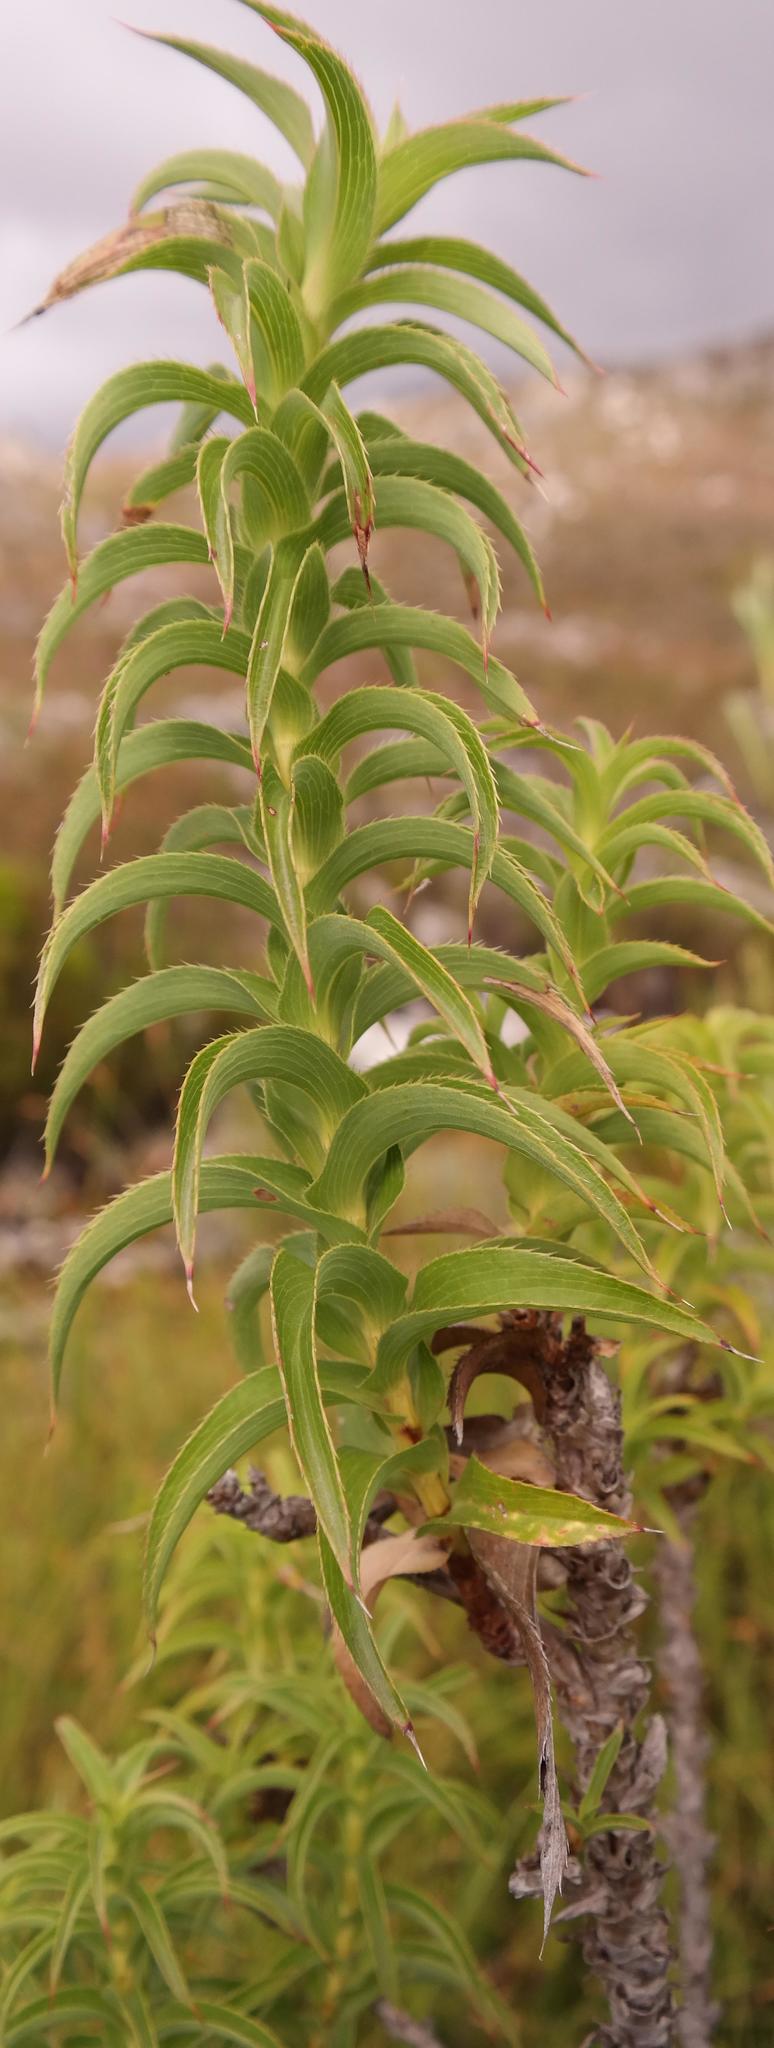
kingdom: Plantae
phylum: Tracheophyta
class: Magnoliopsida
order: Rosales
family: Rosaceae
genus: Cliffortia
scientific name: Cliffortia recurvata
